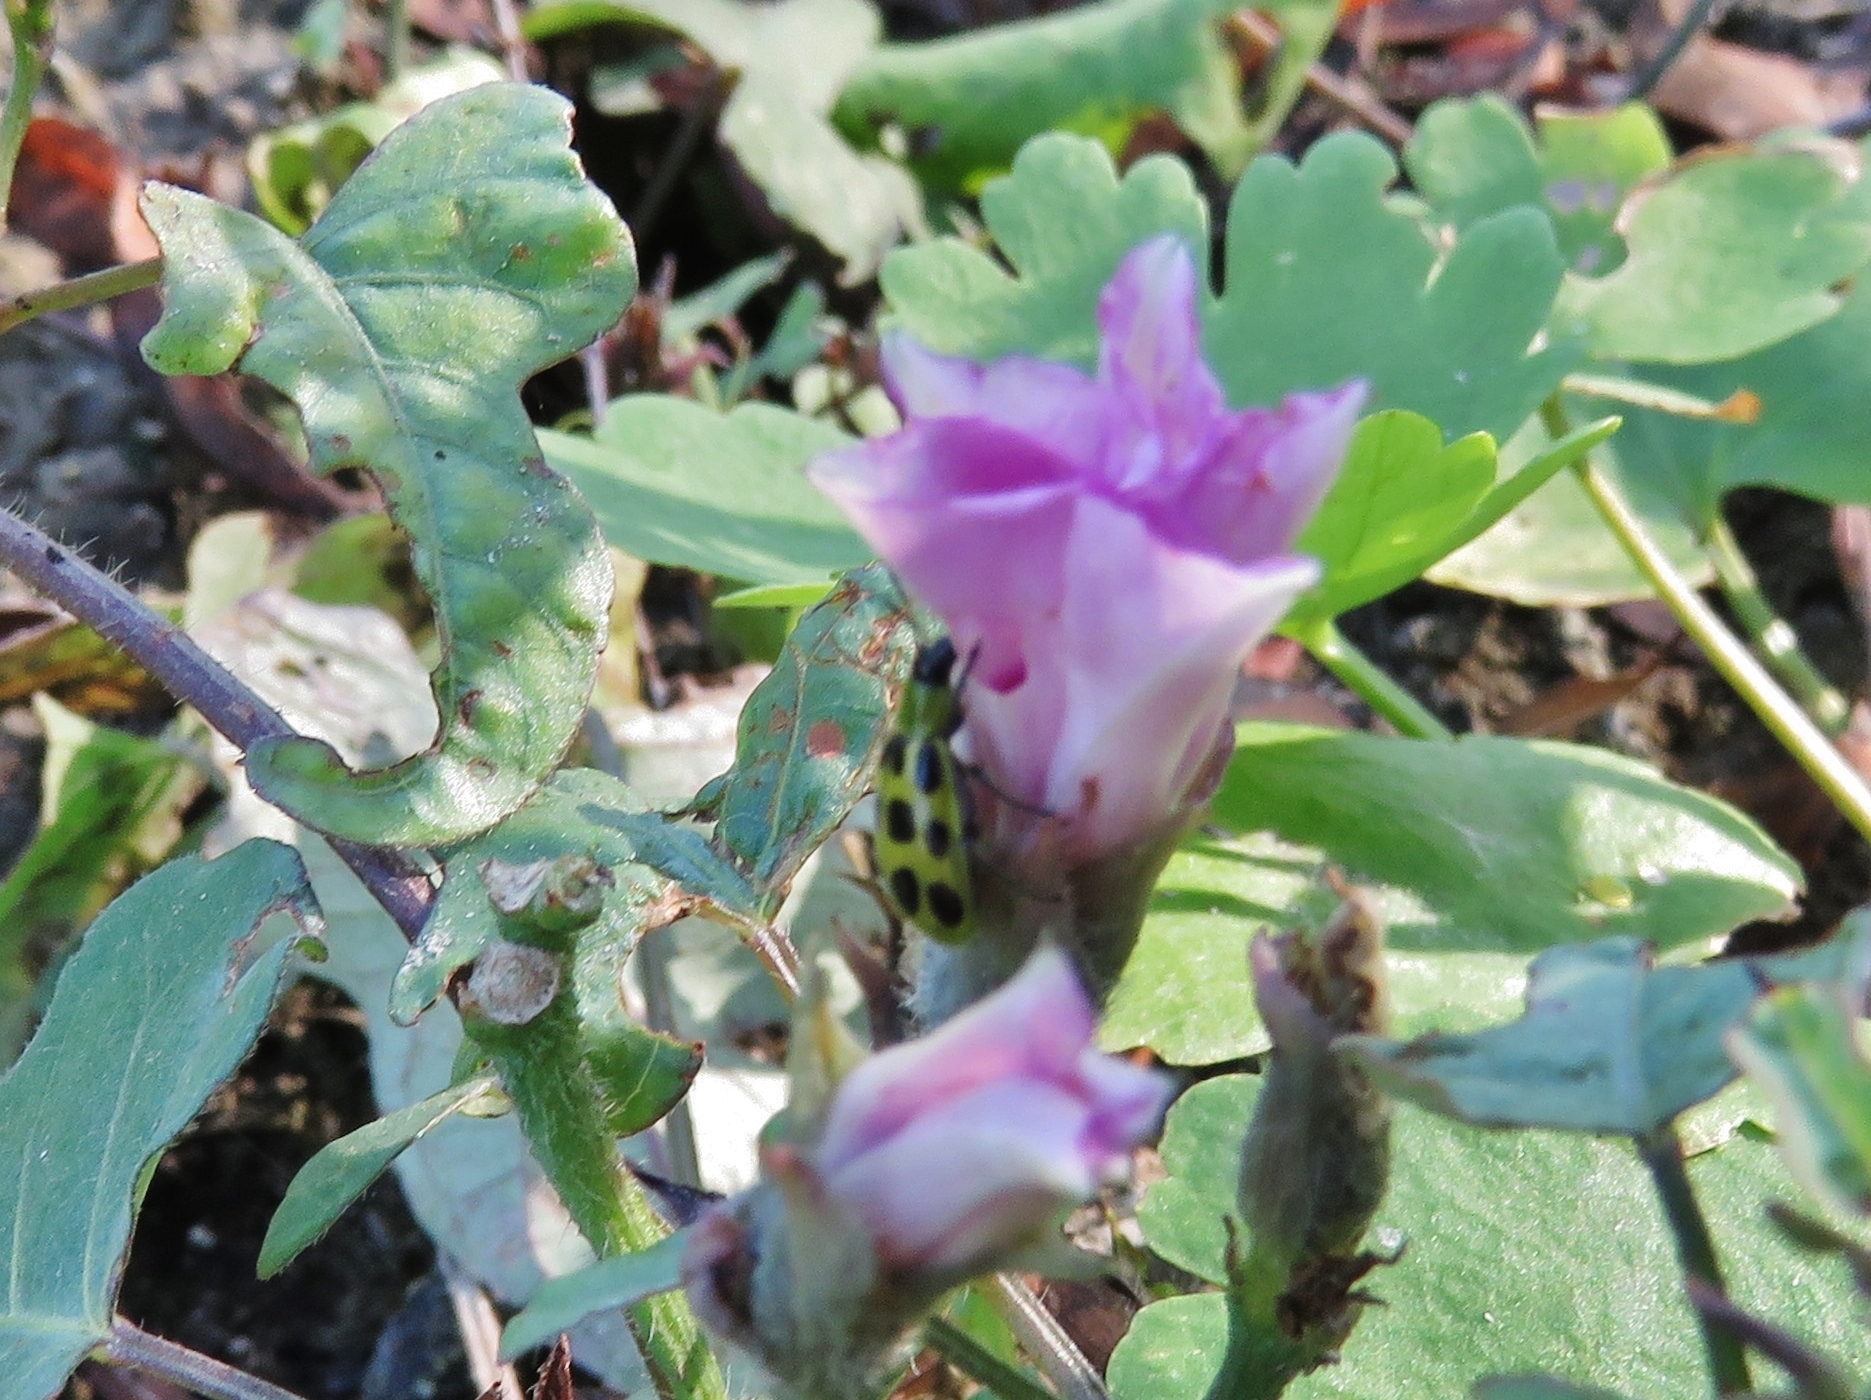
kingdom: Animalia
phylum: Arthropoda
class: Insecta
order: Coleoptera
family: Chrysomelidae
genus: Diabrotica
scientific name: Diabrotica undecimpunctata
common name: Spotted cucumber beetle
